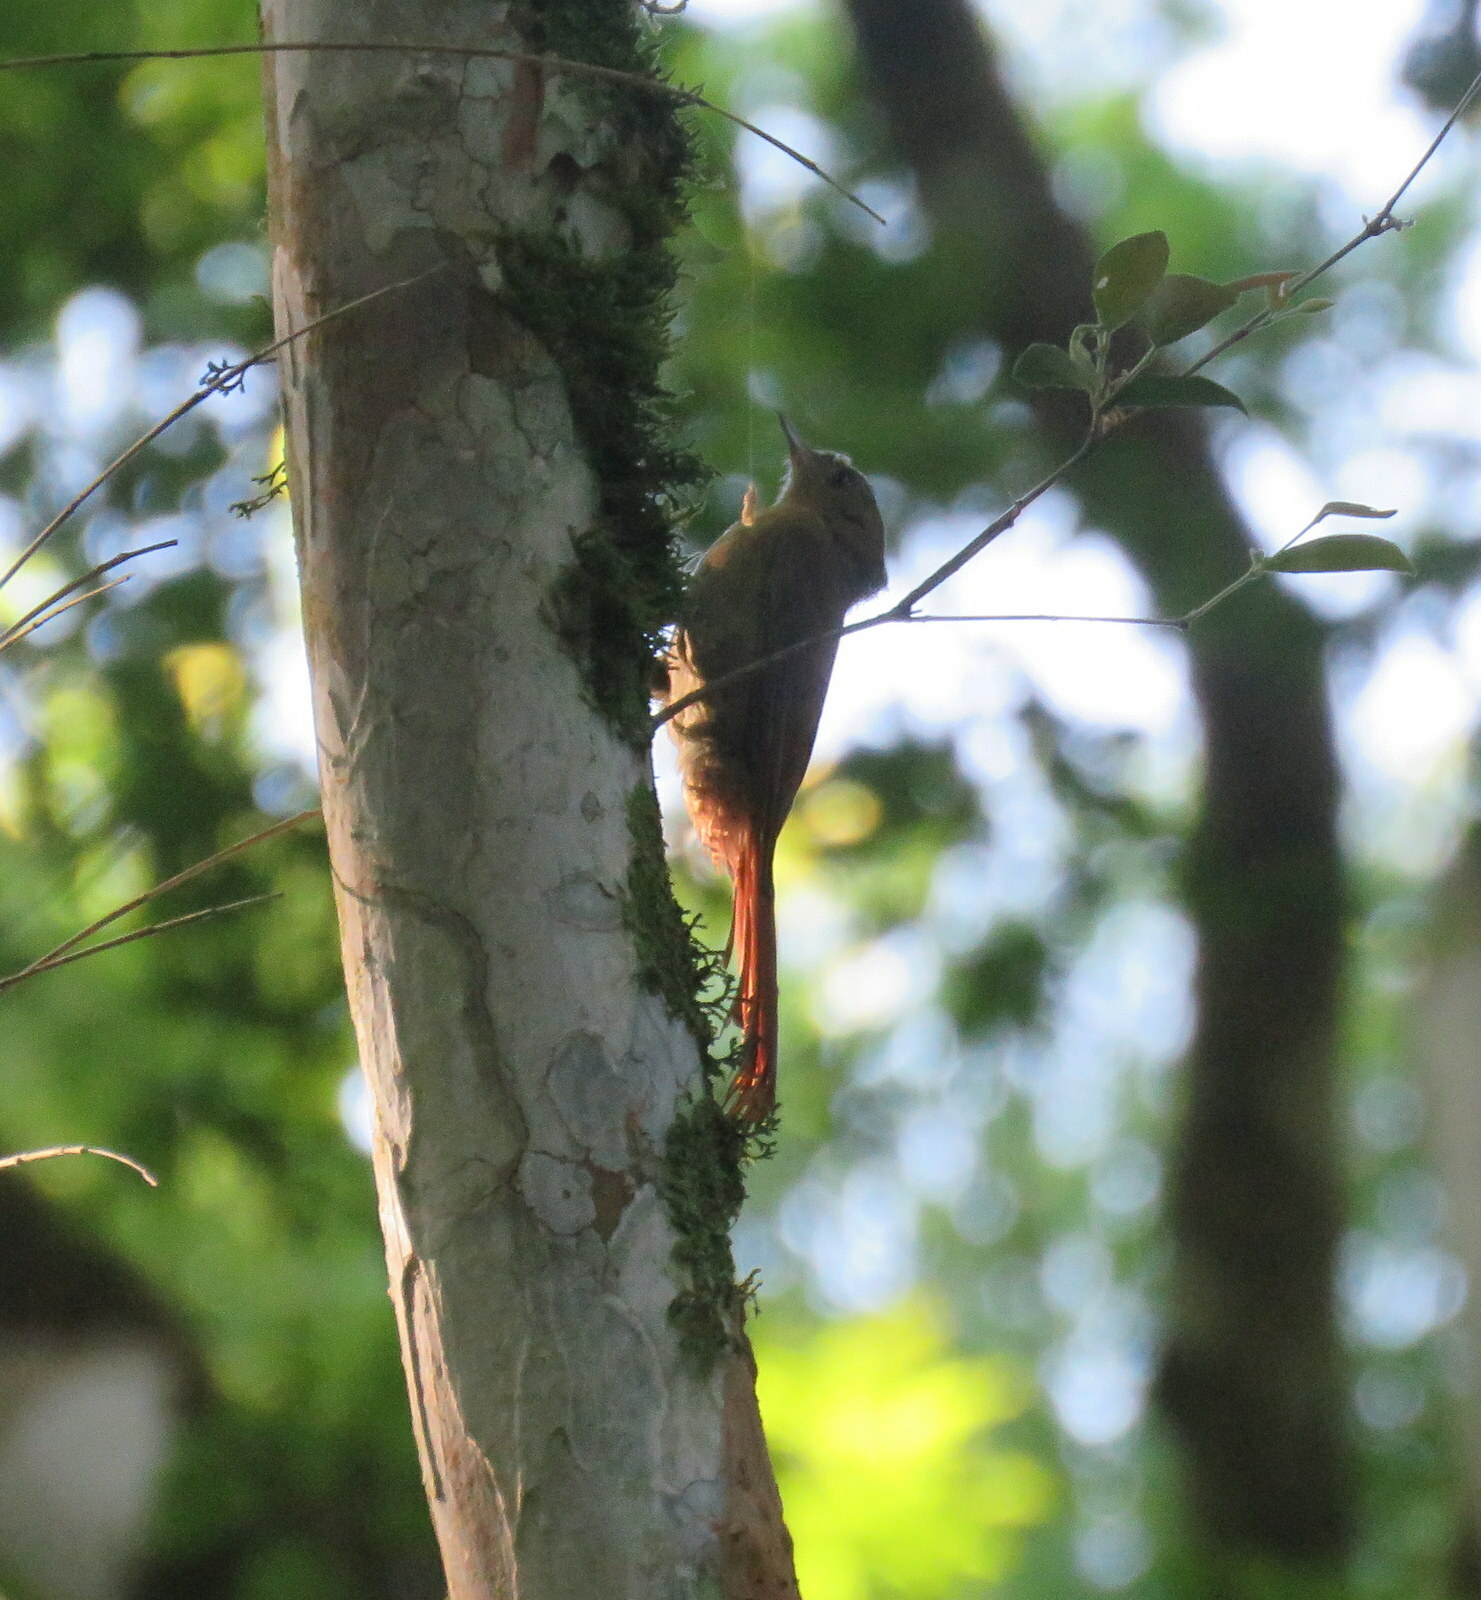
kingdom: Animalia
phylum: Chordata
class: Aves
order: Passeriformes
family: Furnariidae
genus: Sittasomus
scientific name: Sittasomus griseicapillus
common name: Olivaceous woodcreeper
